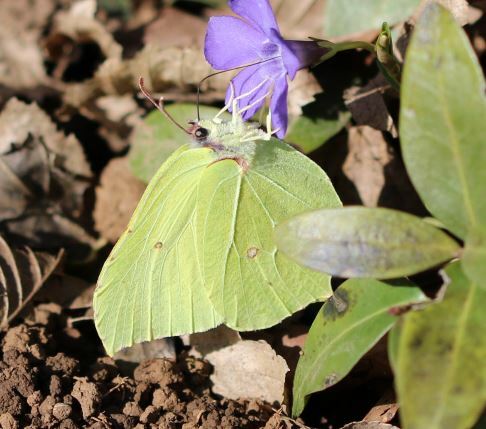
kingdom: Animalia
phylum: Arthropoda
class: Insecta
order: Lepidoptera
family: Pieridae
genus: Gonepteryx
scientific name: Gonepteryx rhamni
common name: Brimstone
